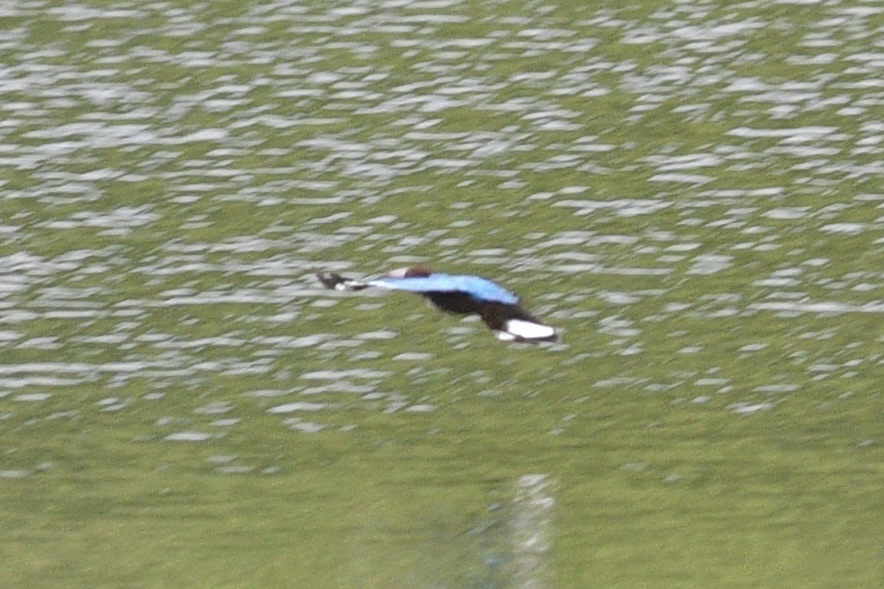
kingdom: Animalia
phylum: Chordata
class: Aves
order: Coraciiformes
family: Alcedinidae
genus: Halcyon
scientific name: Halcyon smyrnensis
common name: White-throated kingfisher
